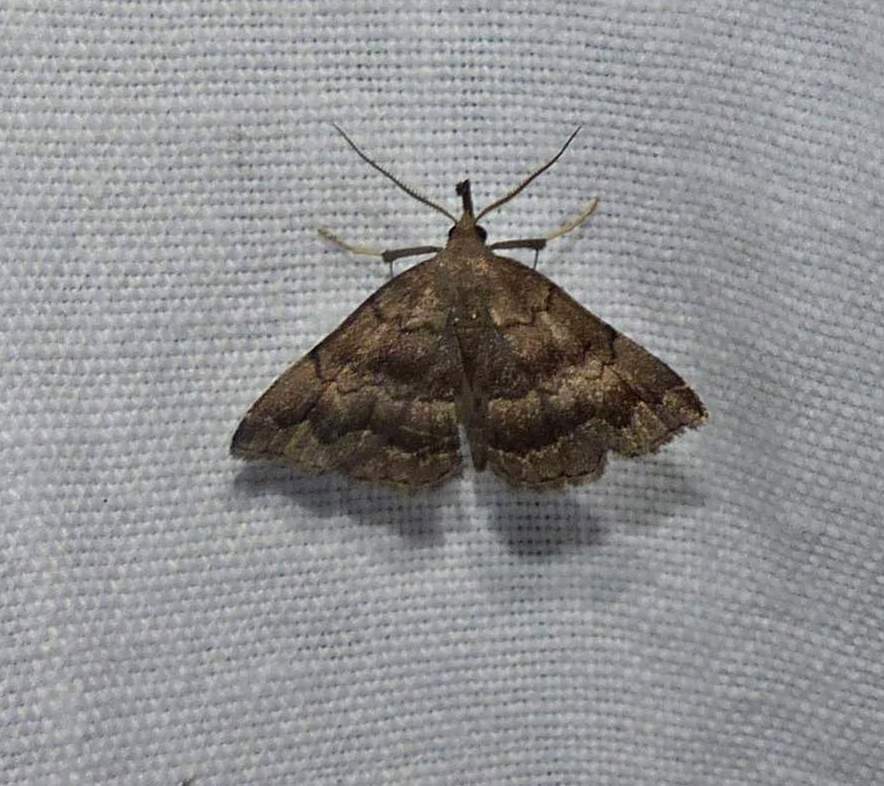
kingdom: Animalia
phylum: Arthropoda
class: Insecta
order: Lepidoptera
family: Erebidae
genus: Phalaenostola
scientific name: Phalaenostola larentioides
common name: Black-banded owlet
